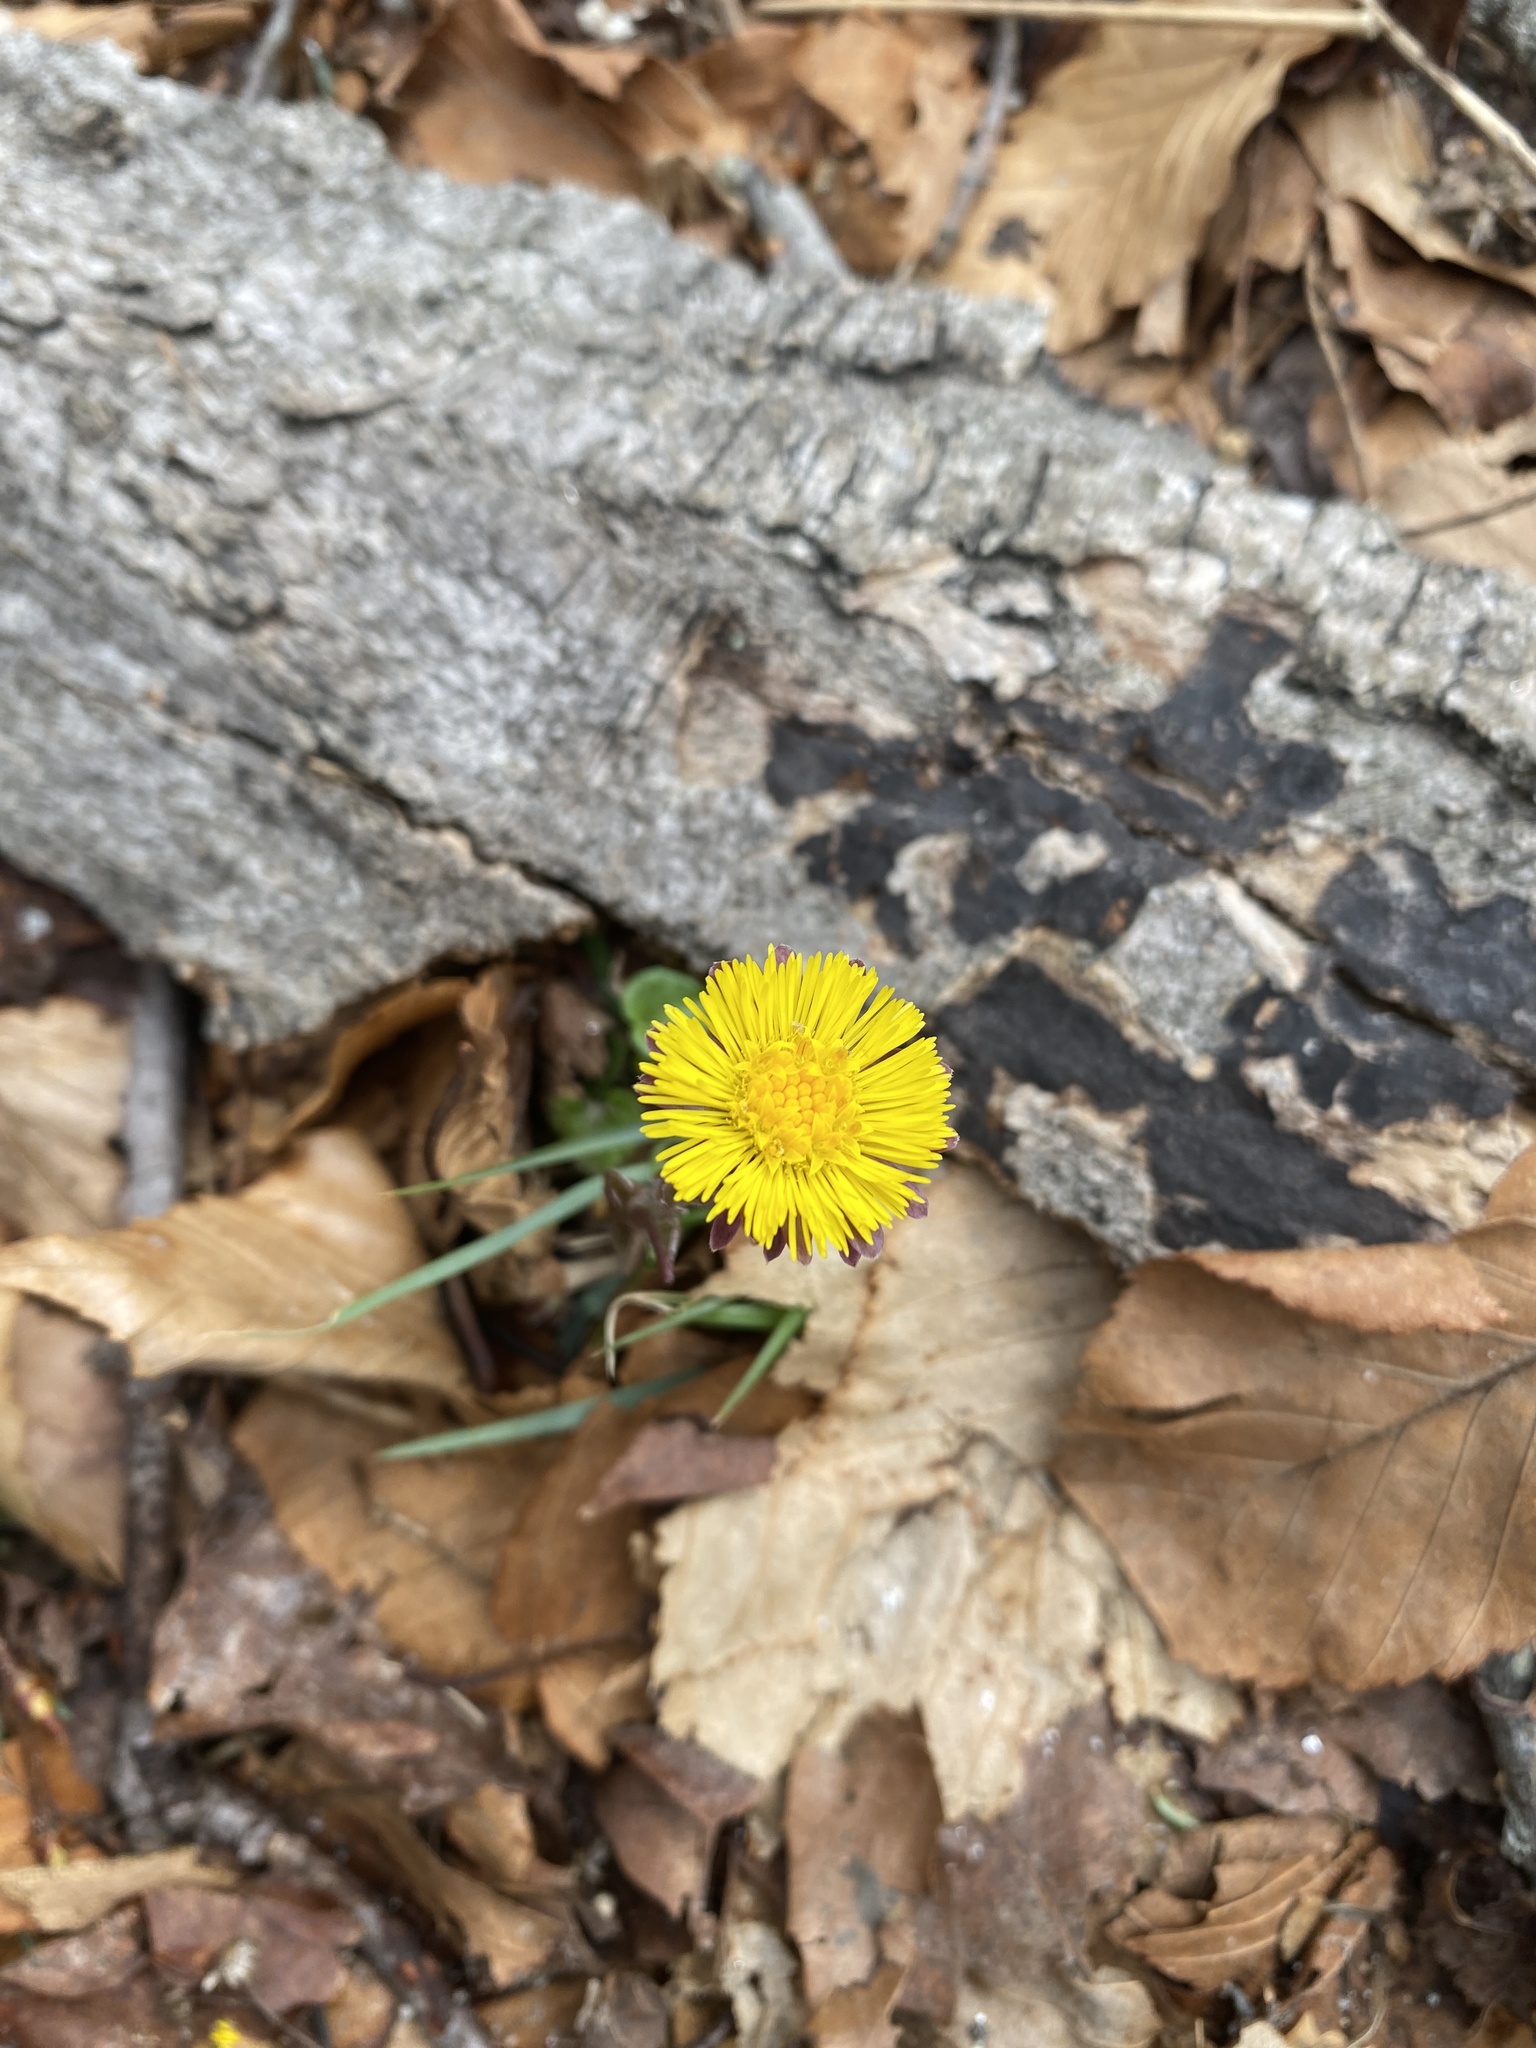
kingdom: Plantae
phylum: Tracheophyta
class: Magnoliopsida
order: Asterales
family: Asteraceae
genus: Tussilago
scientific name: Tussilago farfara
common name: Coltsfoot
